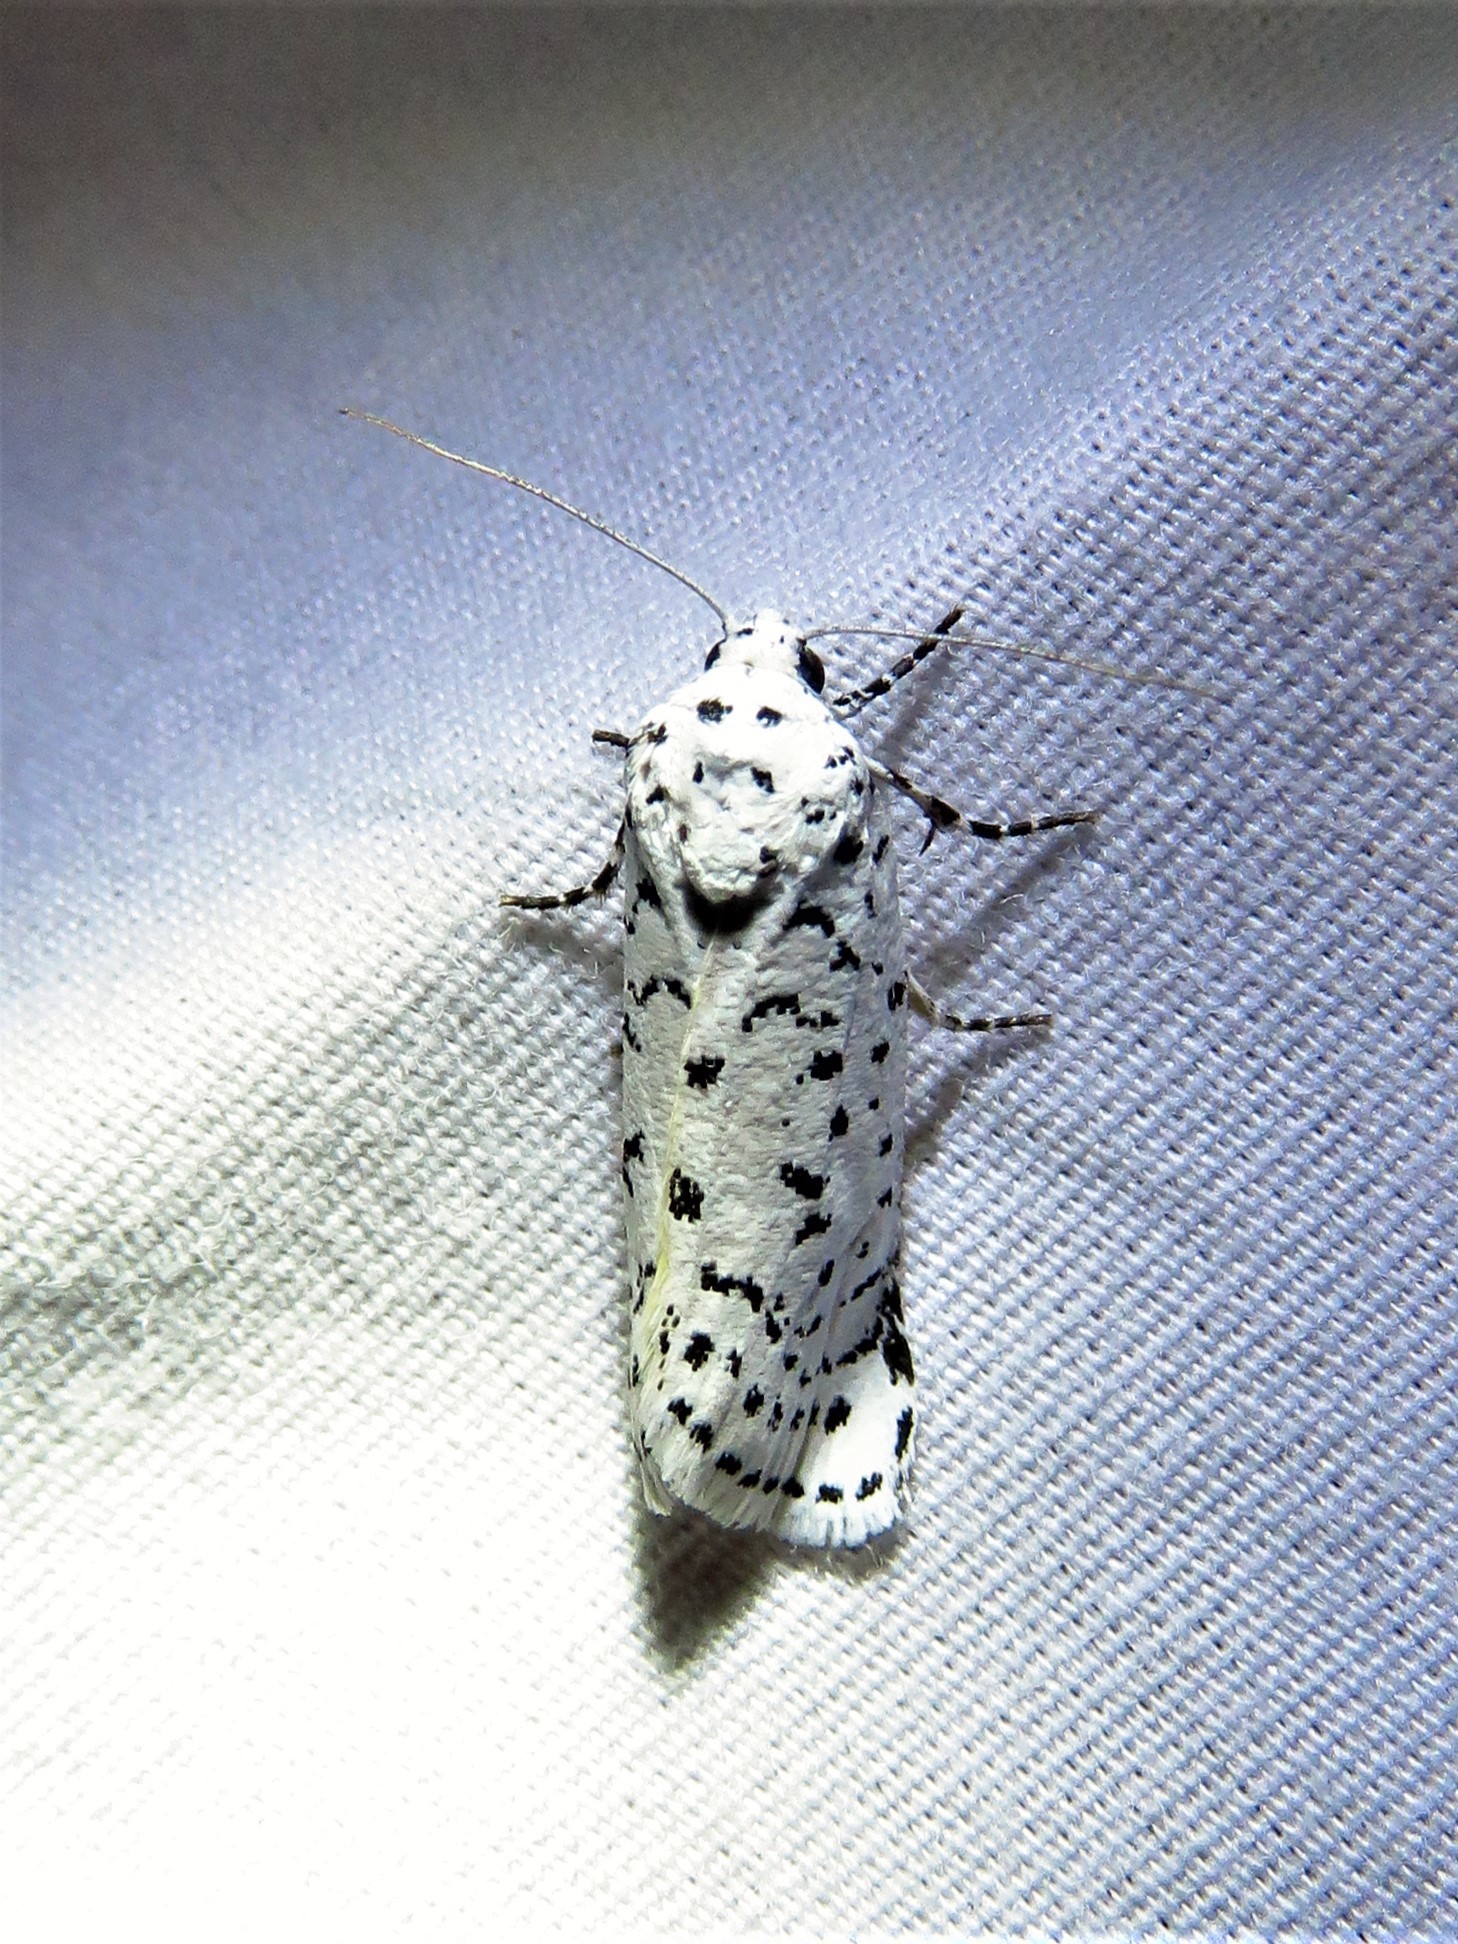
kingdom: Animalia
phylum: Arthropoda
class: Insecta
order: Lepidoptera
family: Noctuidae
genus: Cerathosia
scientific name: Cerathosia tricolor
